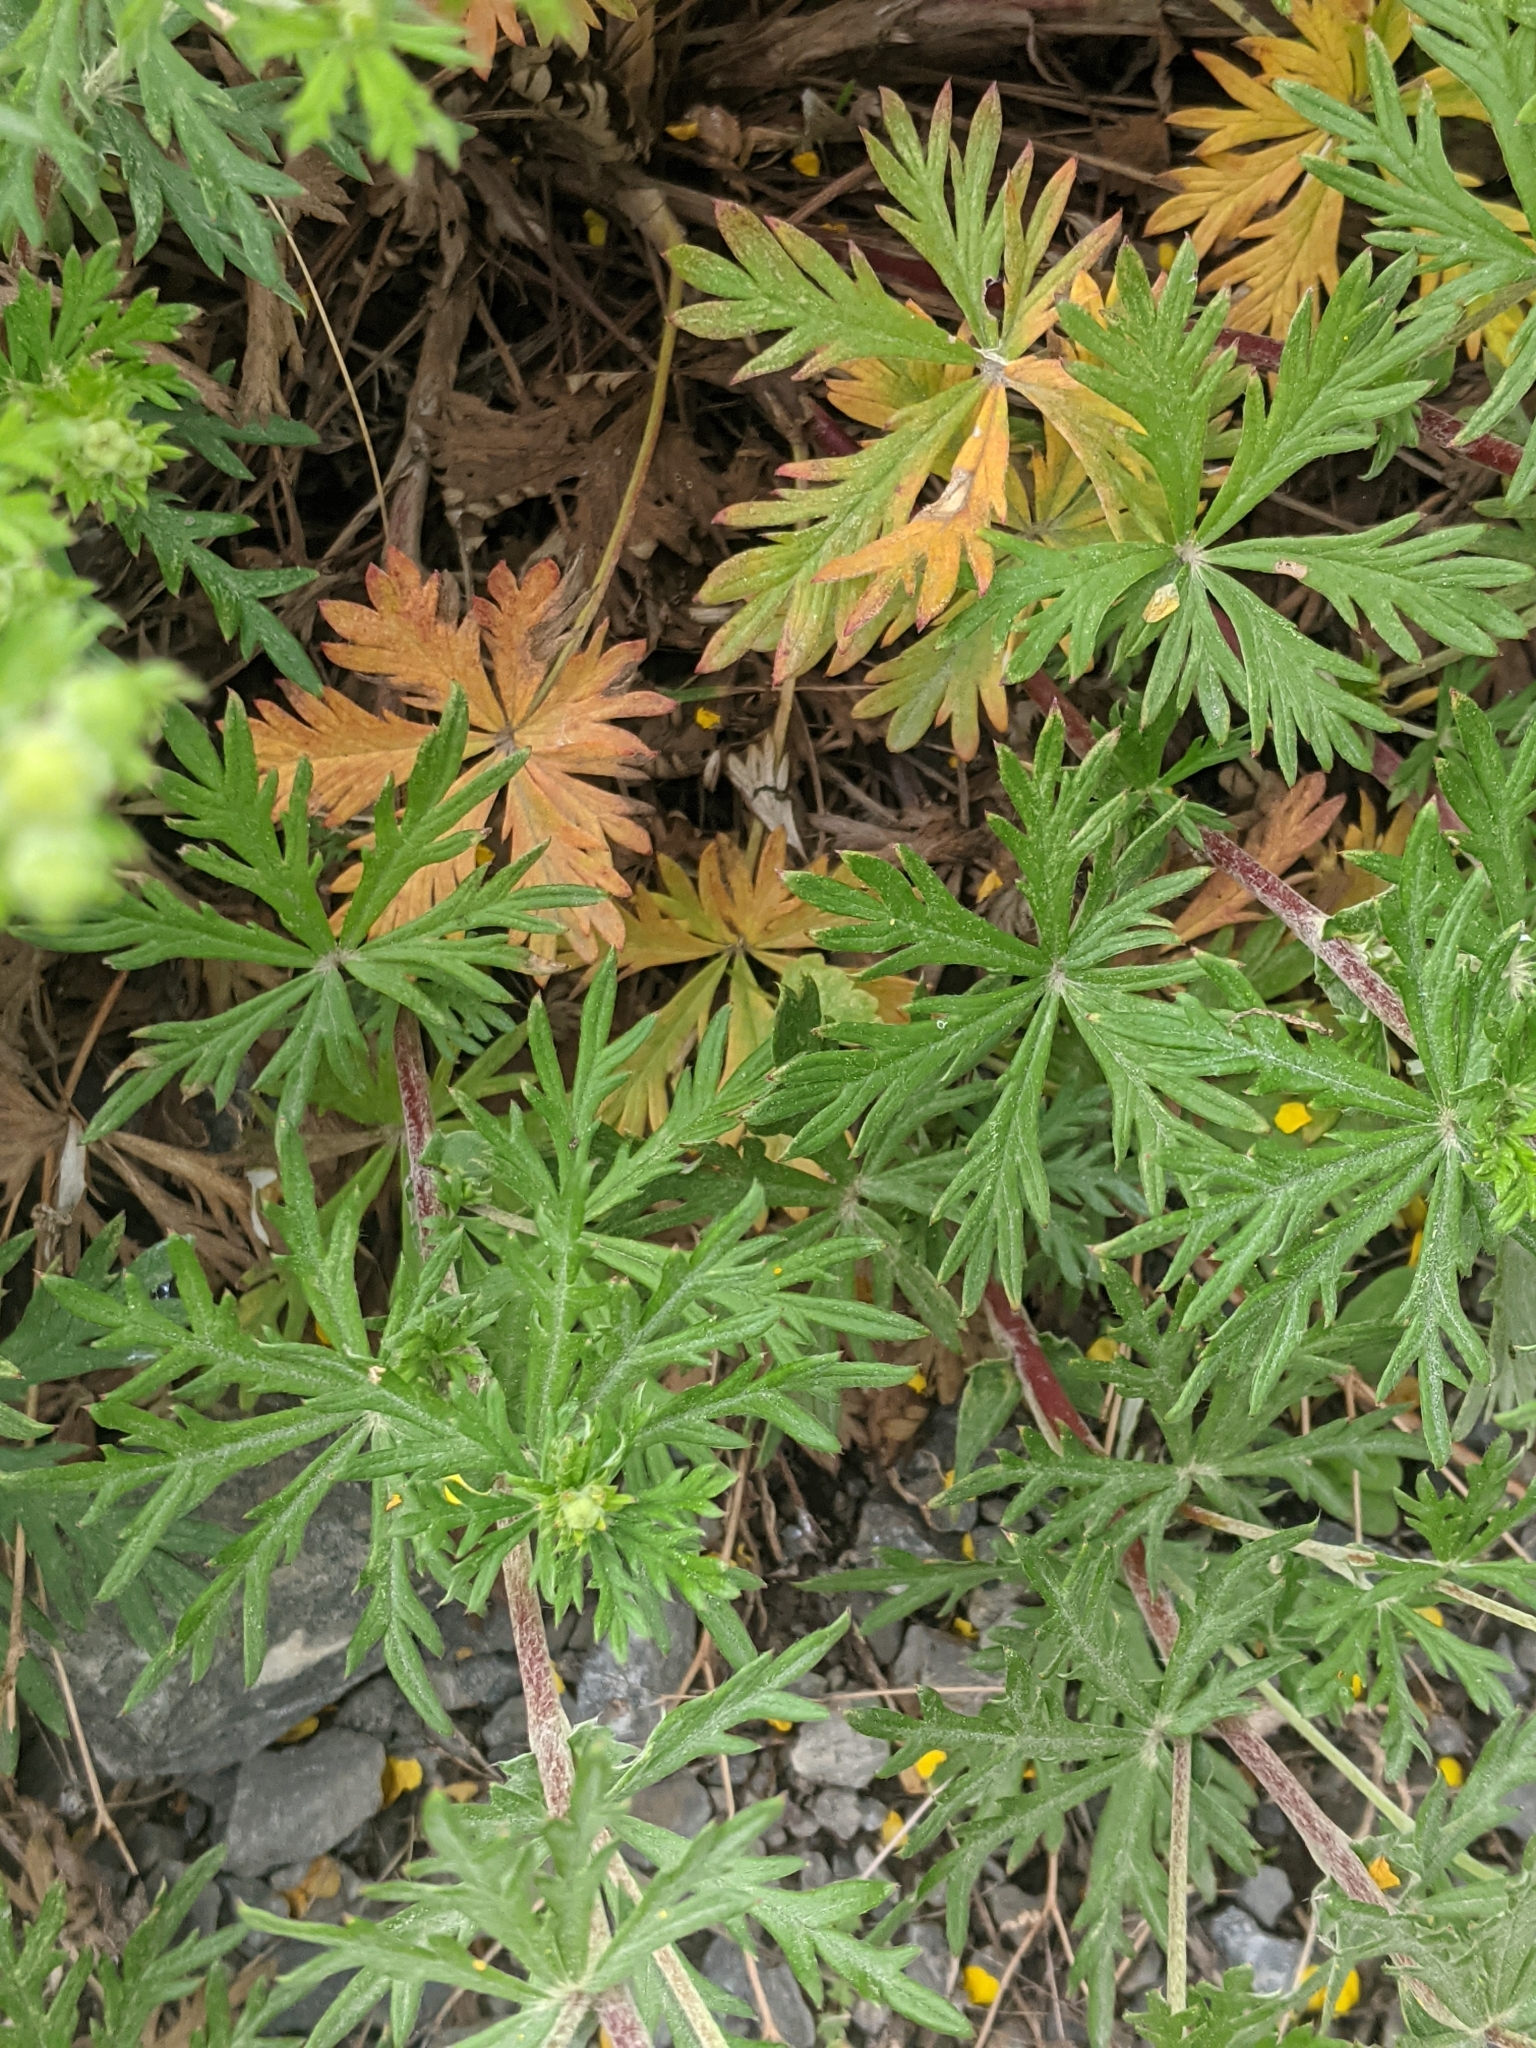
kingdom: Plantae
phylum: Tracheophyta
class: Magnoliopsida
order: Rosales
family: Rosaceae
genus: Potentilla
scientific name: Potentilla argentea
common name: Hoary cinquefoil
